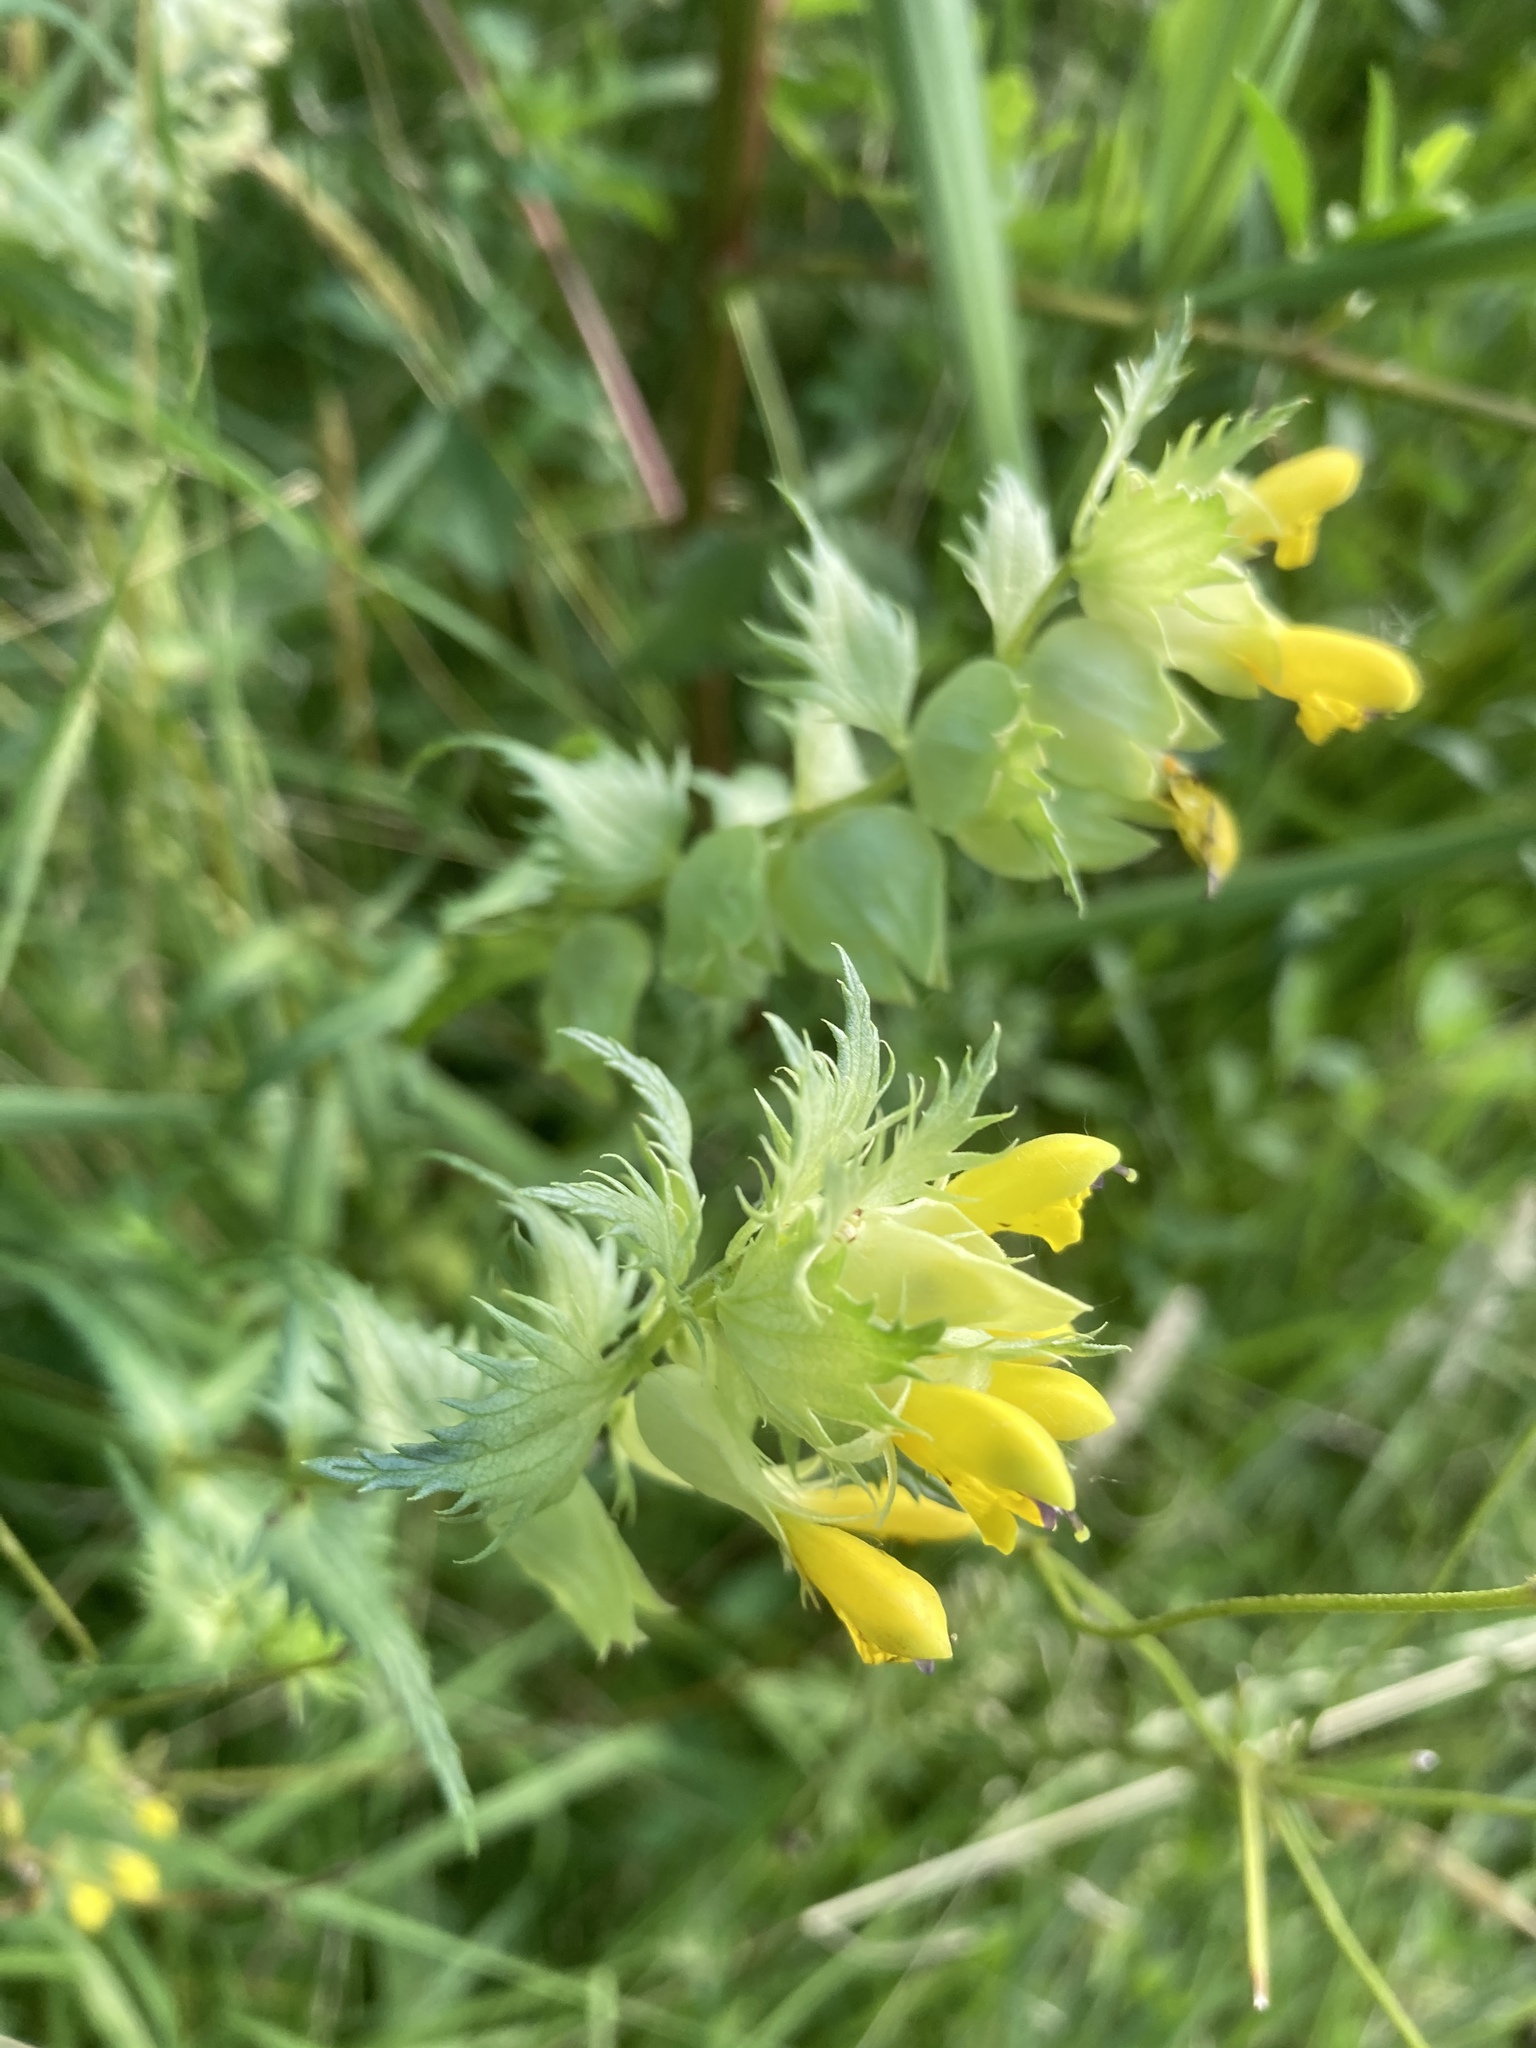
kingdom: Plantae
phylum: Tracheophyta
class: Magnoliopsida
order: Lamiales
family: Orobanchaceae
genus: Rhinanthus
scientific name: Rhinanthus serotinus
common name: Late-flowering yellow rattle
